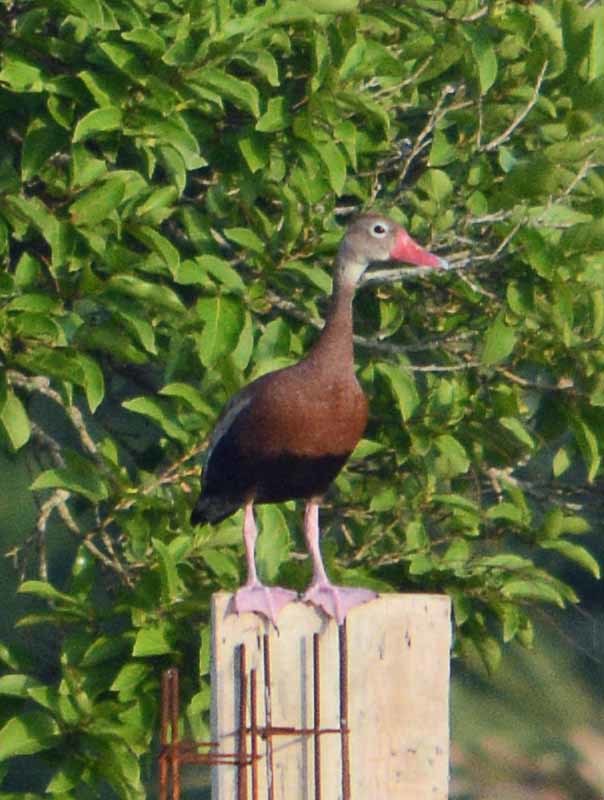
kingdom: Animalia
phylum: Chordata
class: Aves
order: Anseriformes
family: Anatidae
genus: Dendrocygna
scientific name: Dendrocygna autumnalis
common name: Black-bellied whistling duck
